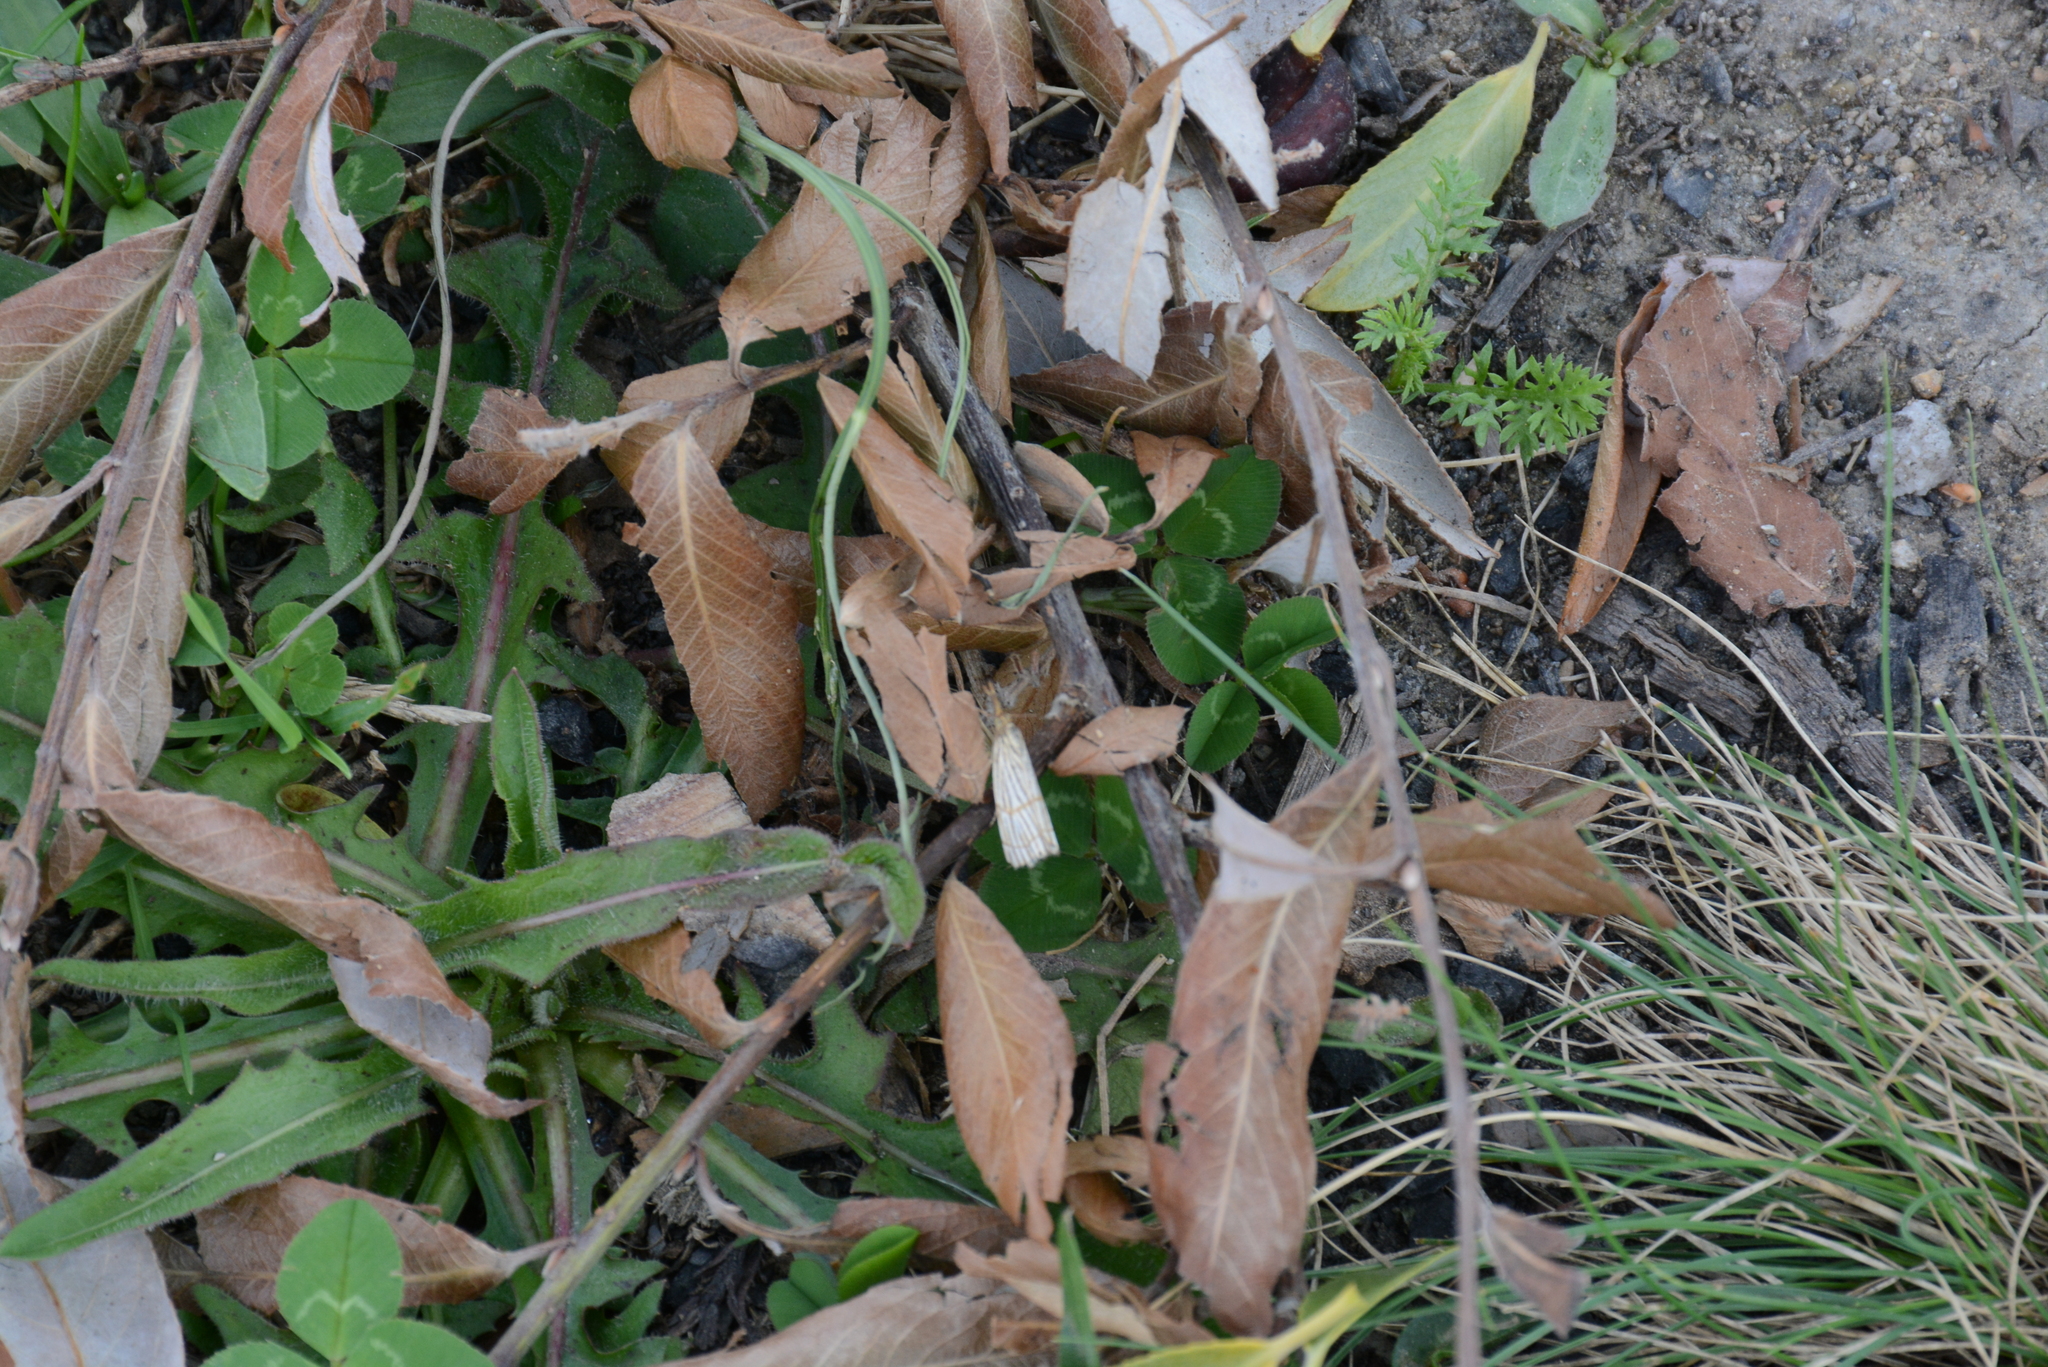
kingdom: Animalia
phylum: Arthropoda
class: Insecta
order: Lepidoptera
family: Crambidae
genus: Chrysocrambus
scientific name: Chrysocrambus linetella
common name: Orange-bar grass-veneer
